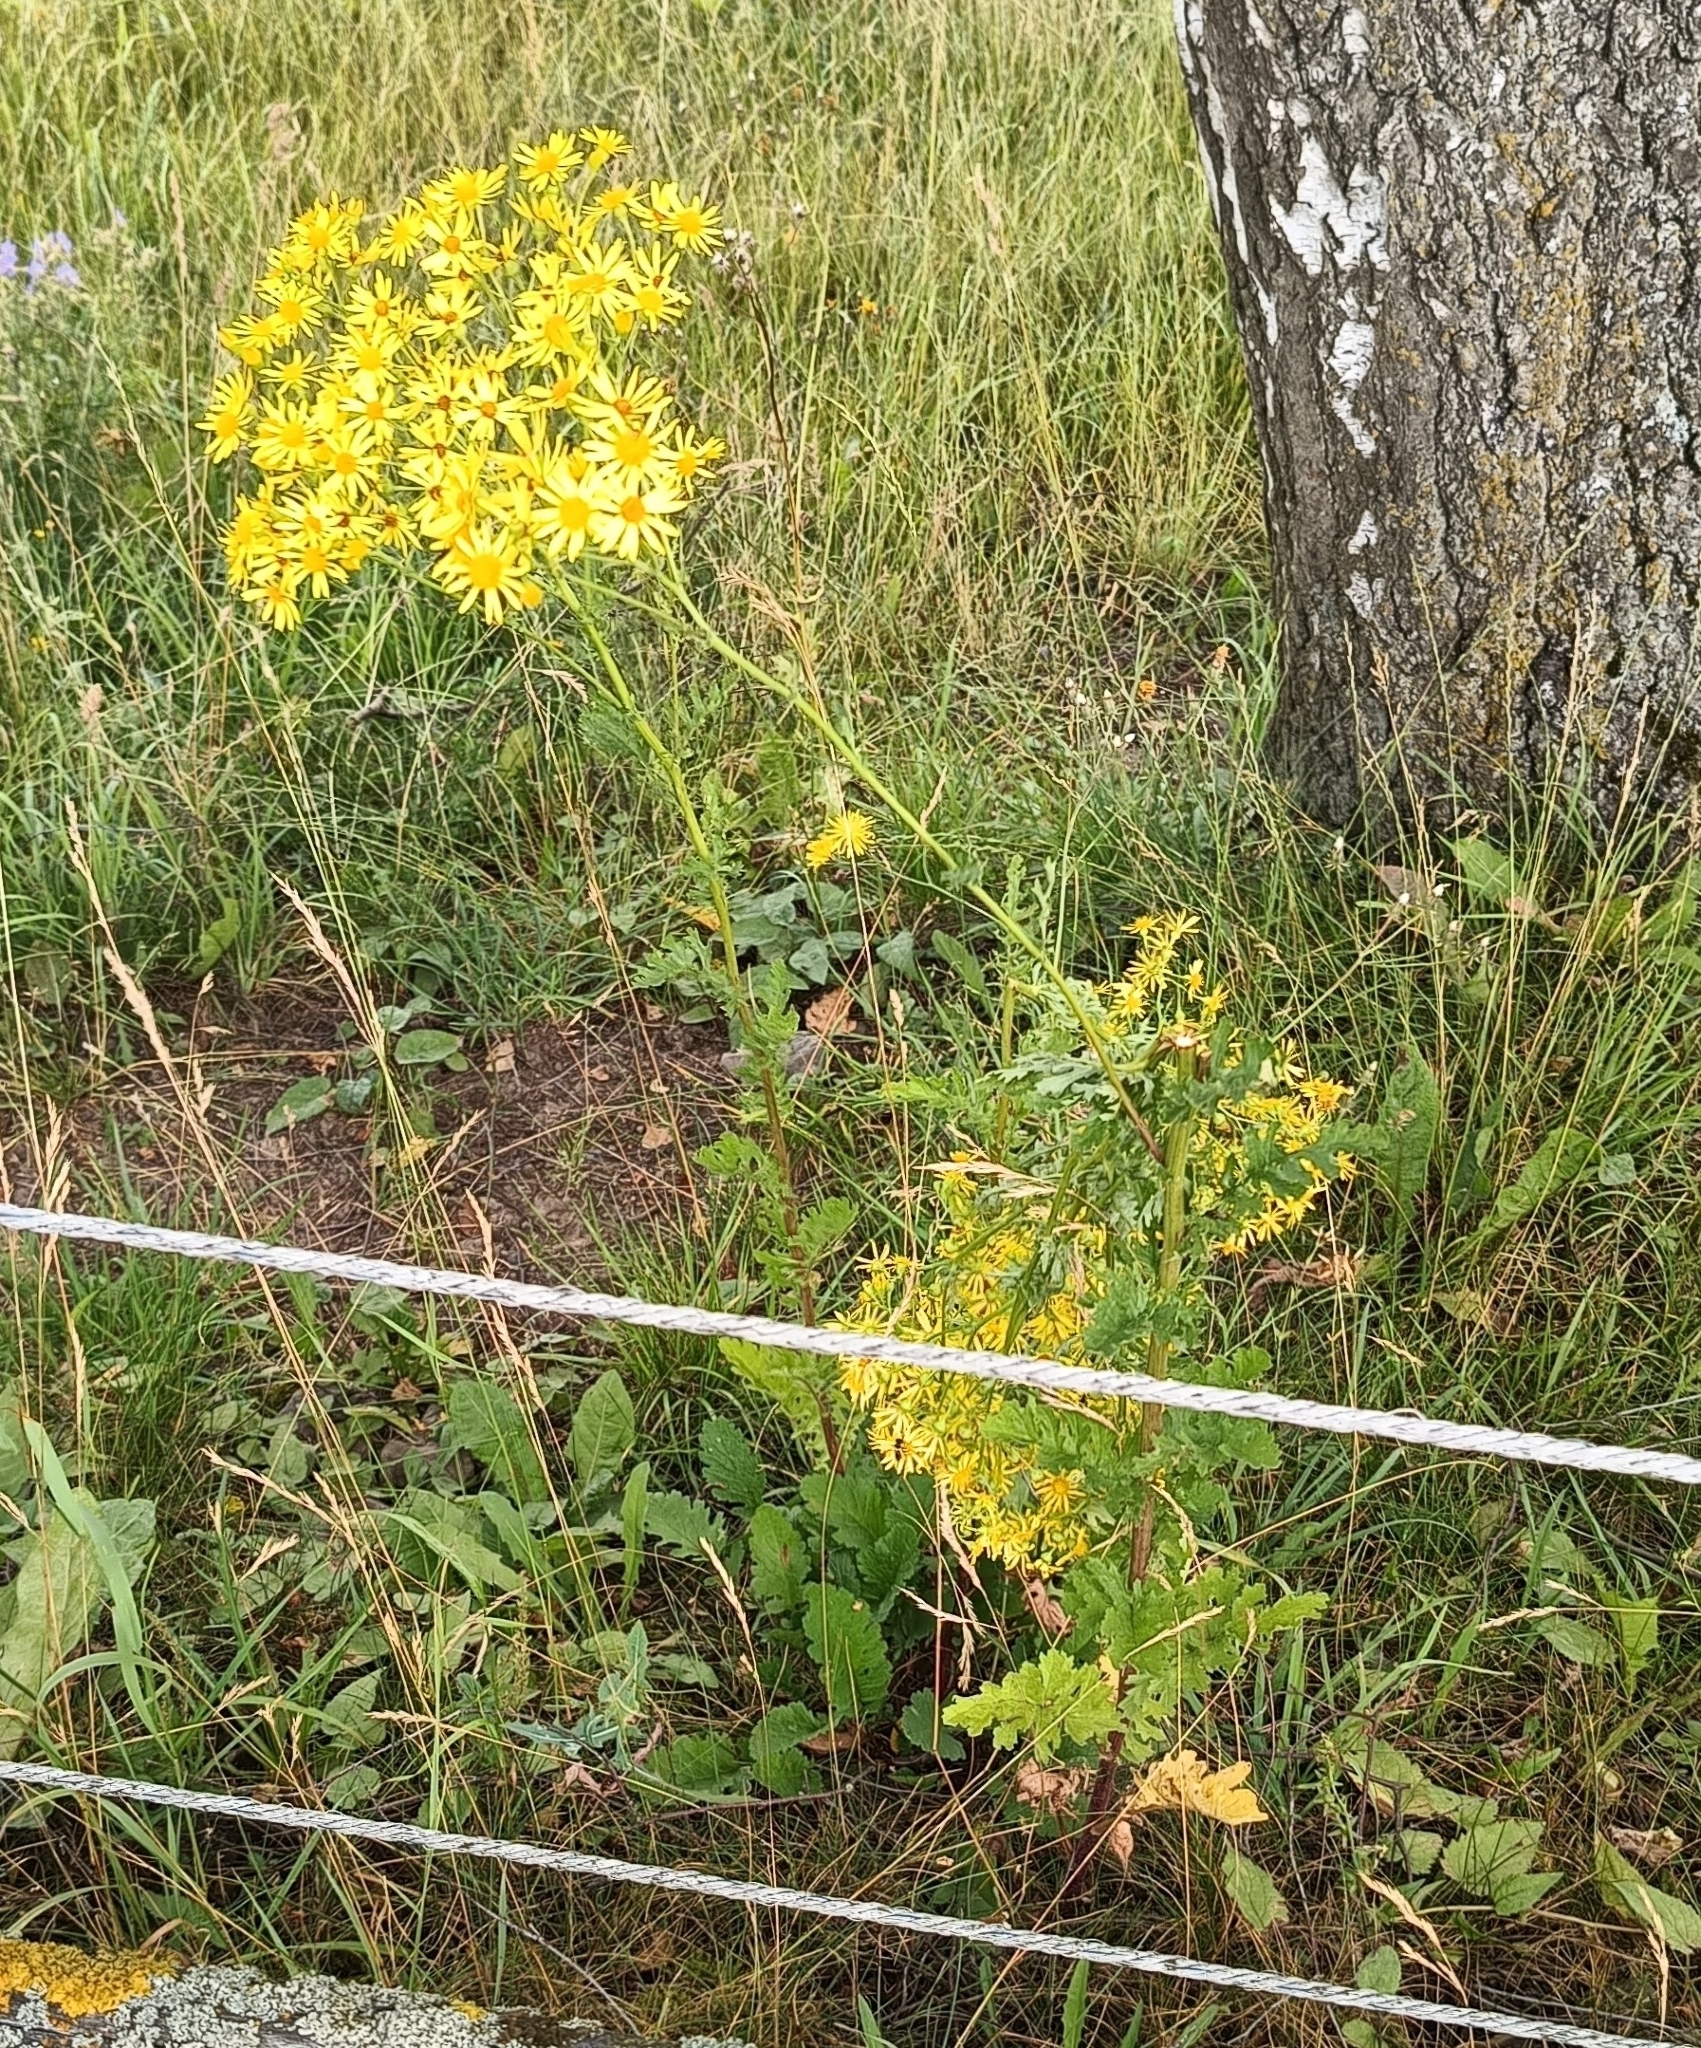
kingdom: Plantae
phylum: Tracheophyta
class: Magnoliopsida
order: Asterales
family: Asteraceae
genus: Jacobaea
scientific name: Jacobaea vulgaris
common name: Stinking willie
